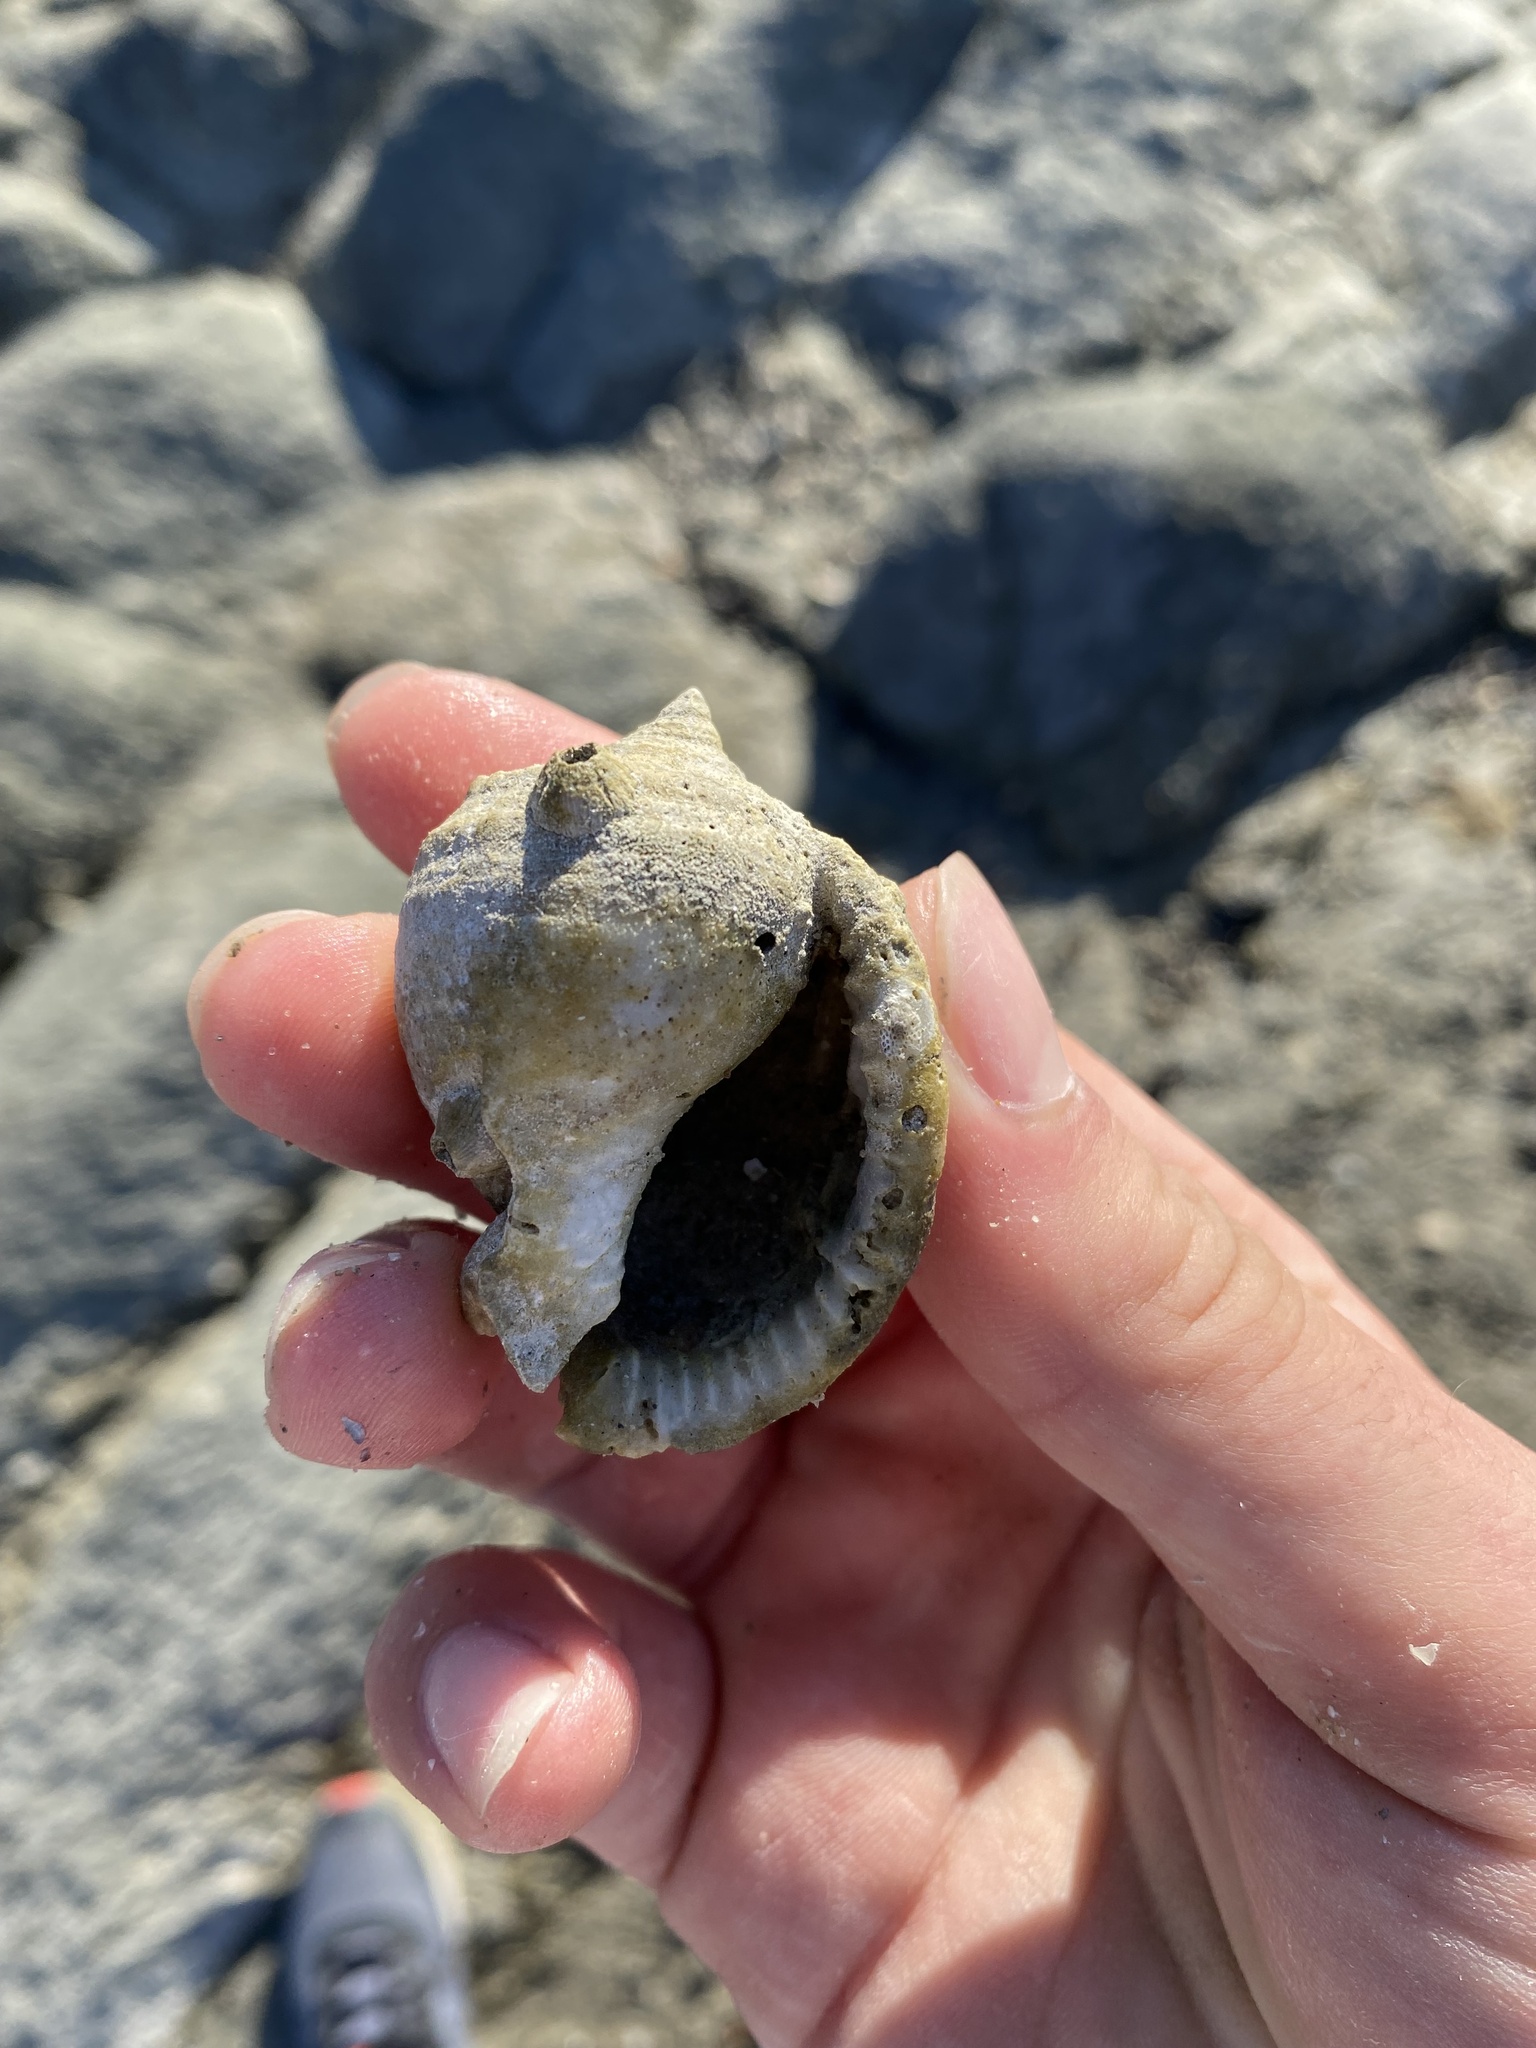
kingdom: Animalia
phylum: Mollusca
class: Gastropoda
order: Littorinimorpha
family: Cassidae
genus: Semicassis
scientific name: Semicassis centiquadrata
